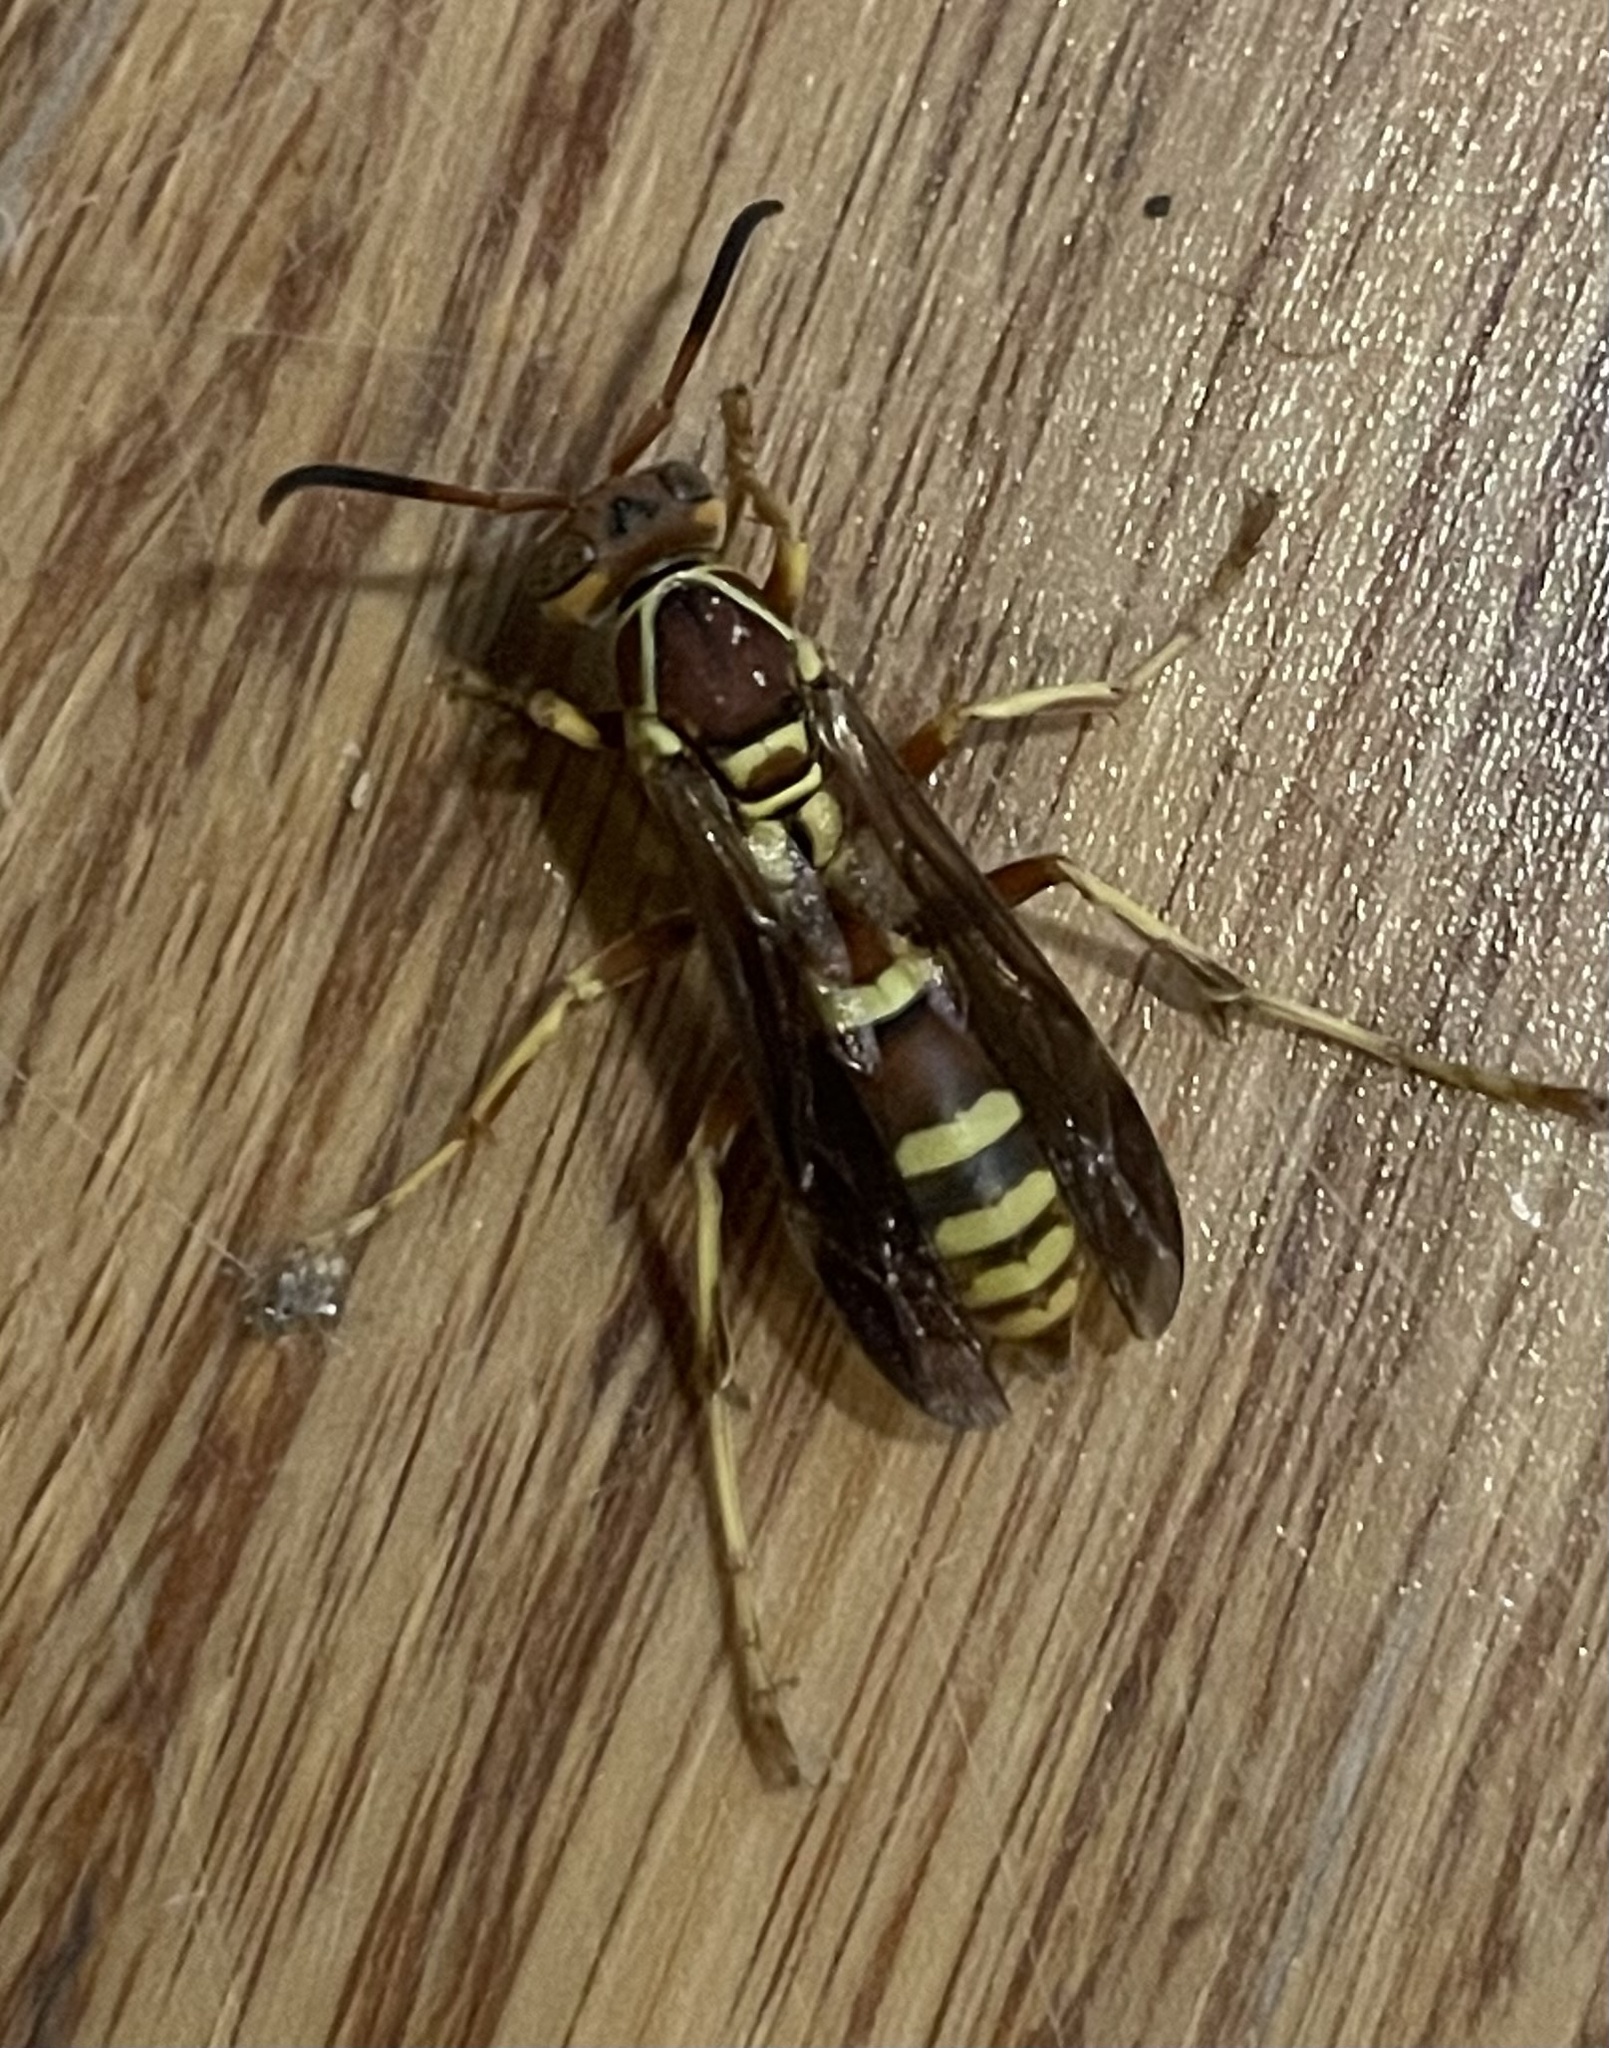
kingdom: Animalia
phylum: Arthropoda
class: Insecta
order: Hymenoptera
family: Eumenidae
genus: Polistes
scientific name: Polistes dorsalis
